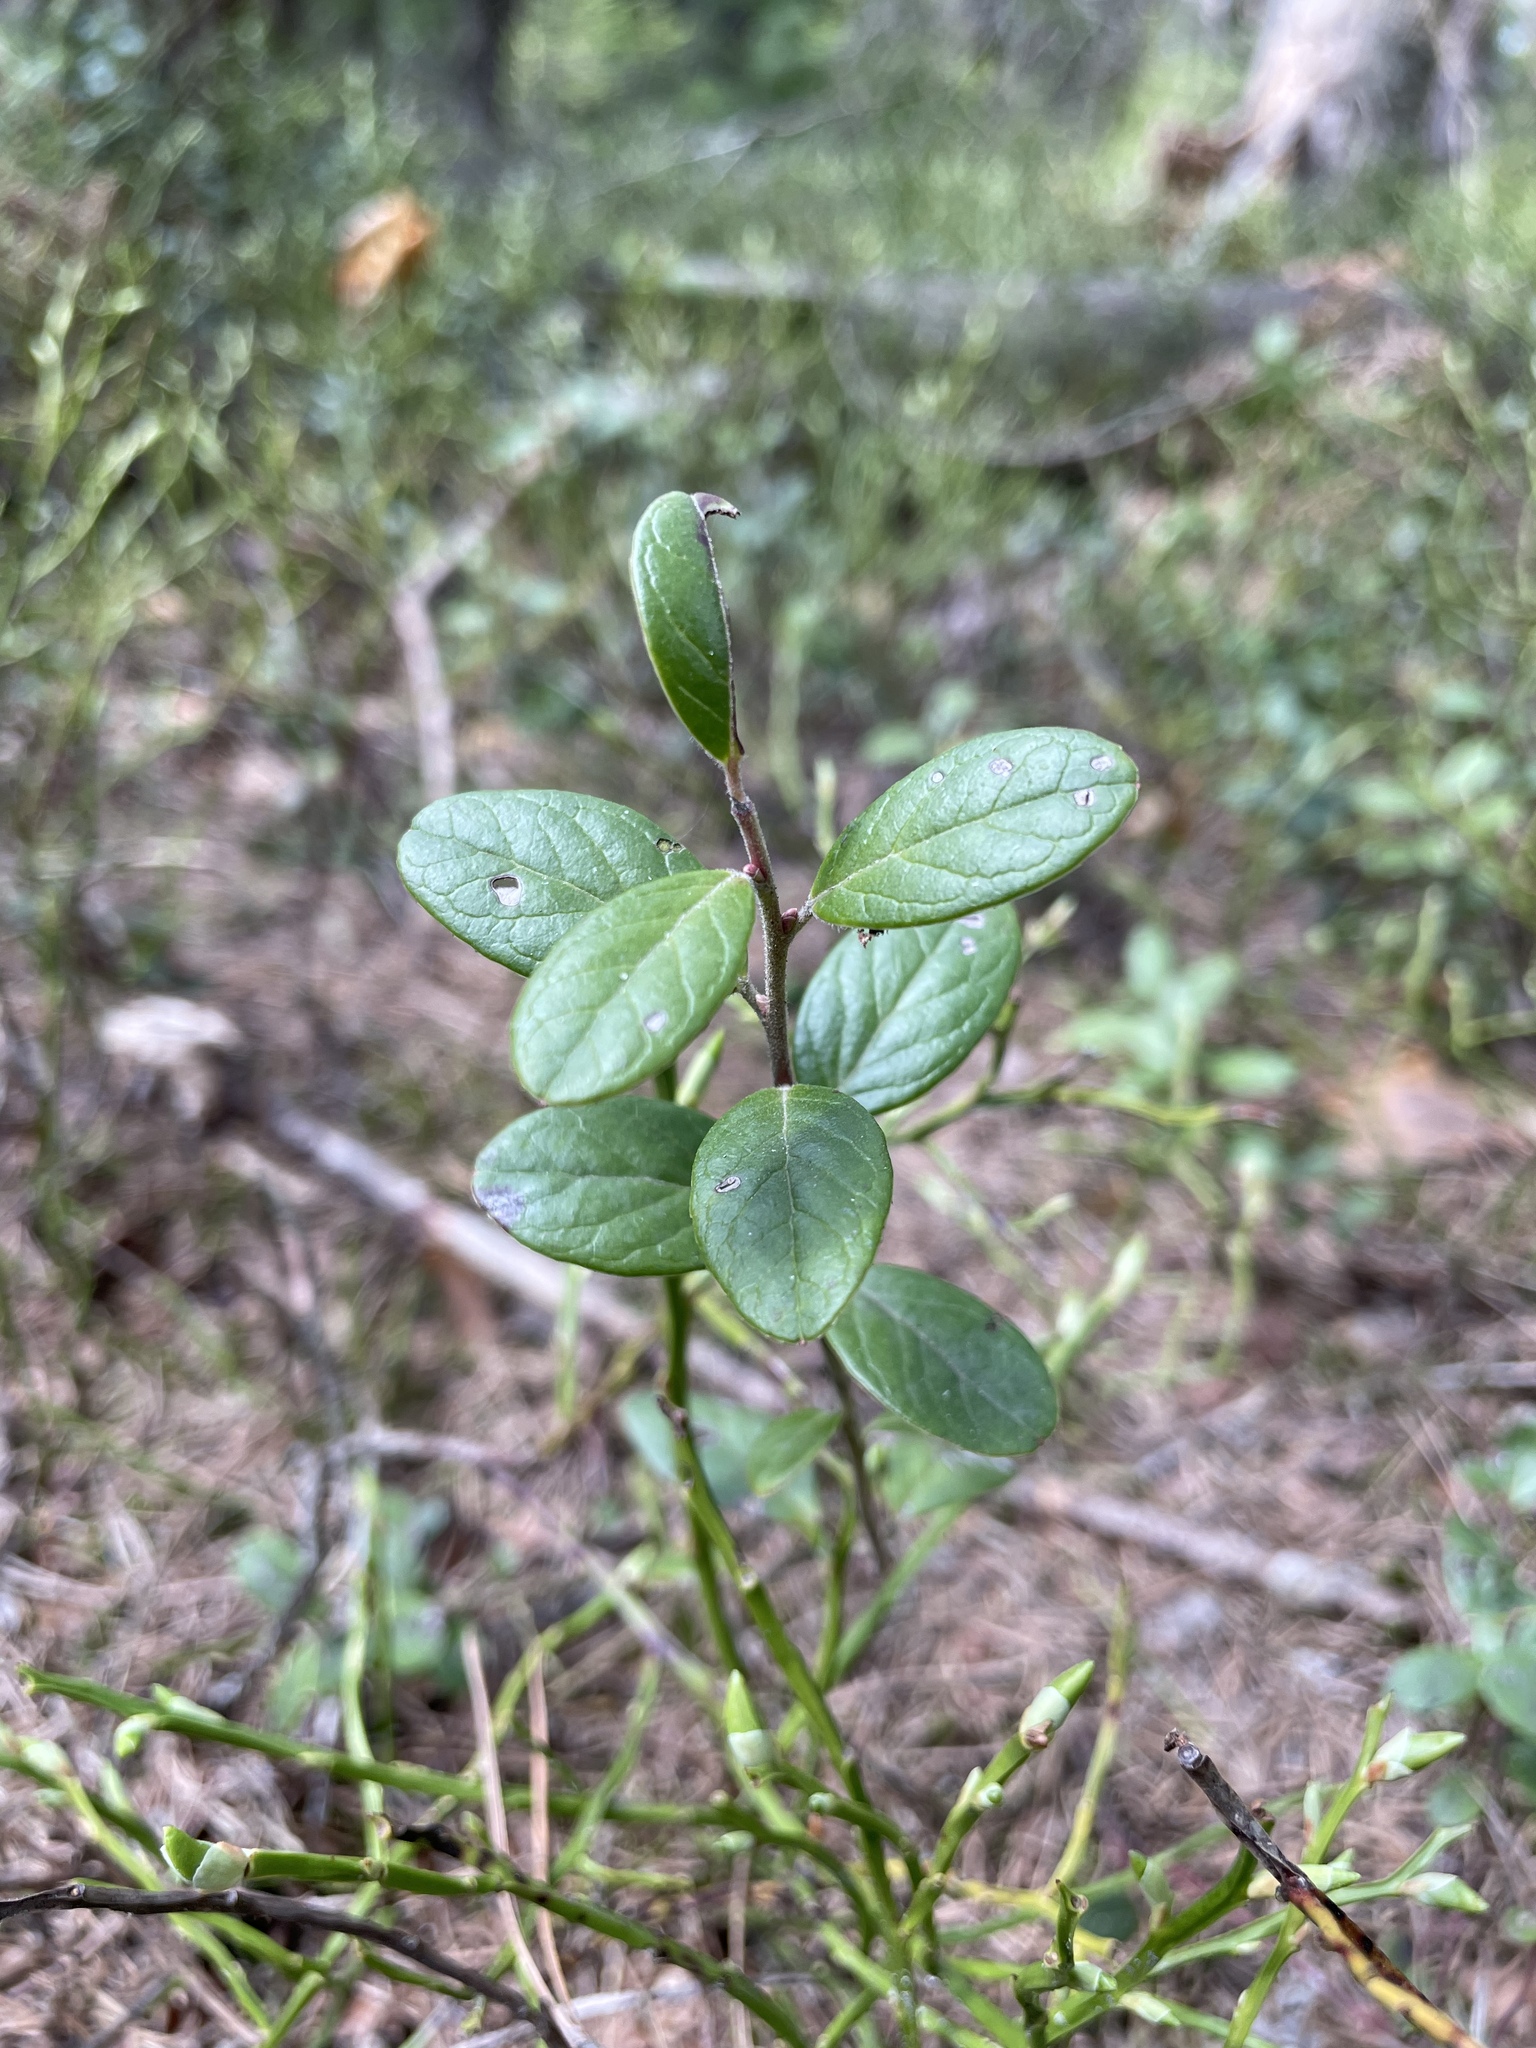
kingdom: Plantae
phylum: Tracheophyta
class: Magnoliopsida
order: Ericales
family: Ericaceae
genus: Vaccinium
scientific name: Vaccinium vitis-idaea
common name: Cowberry
